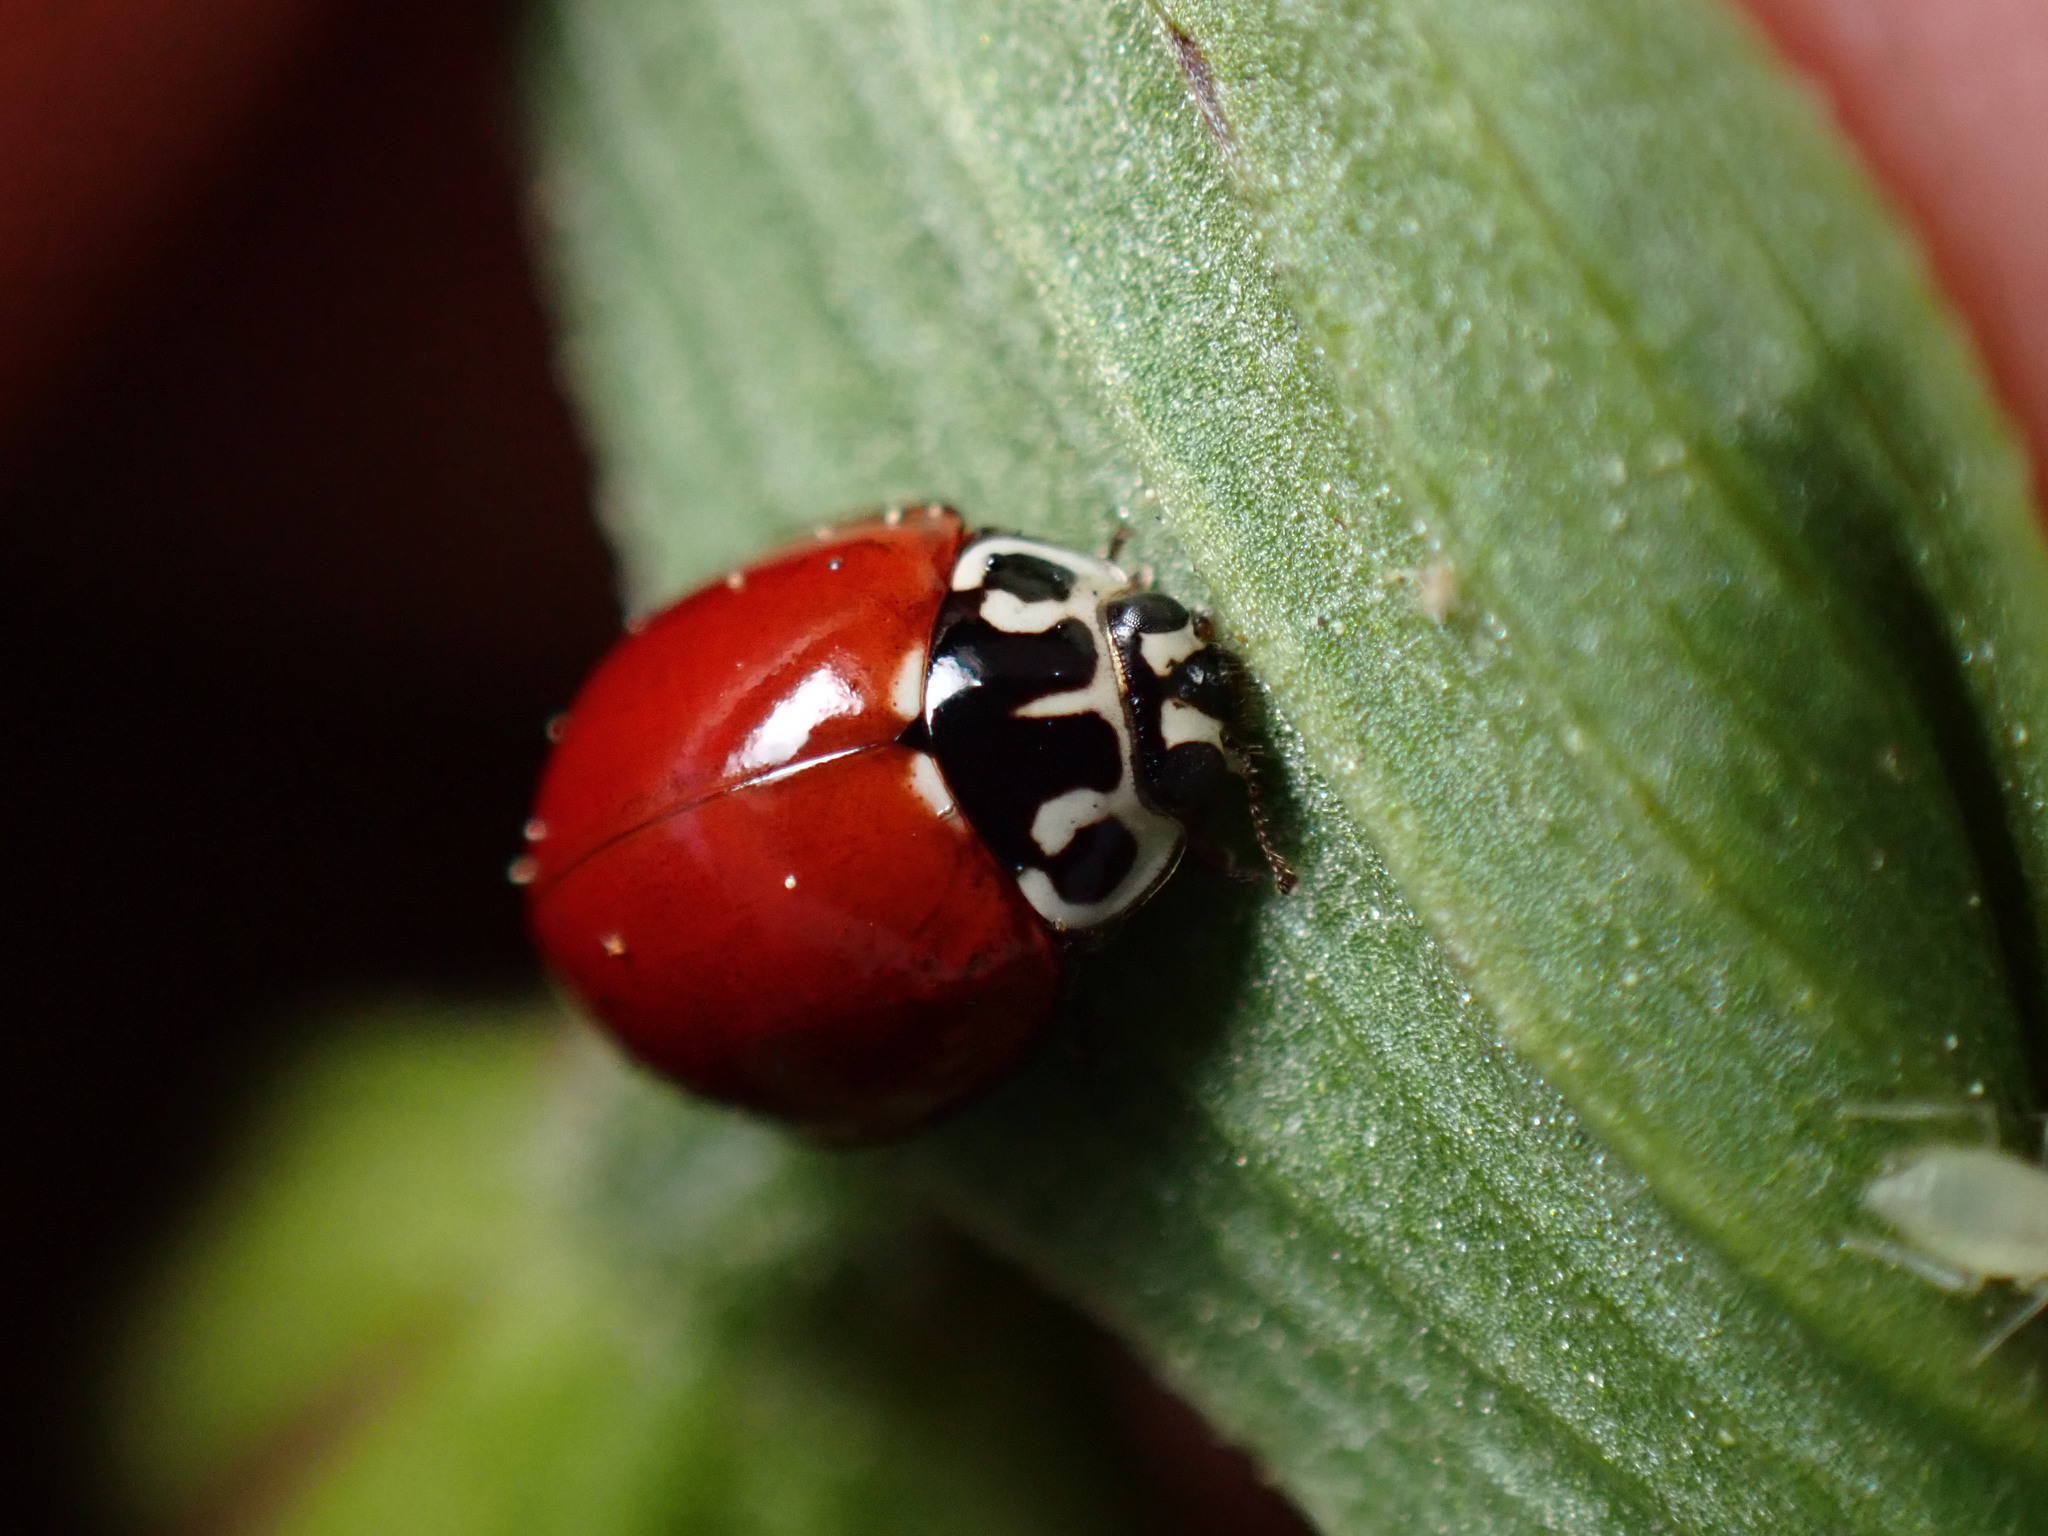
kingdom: Animalia
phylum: Arthropoda
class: Insecta
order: Coleoptera
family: Coccinellidae
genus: Cycloneda
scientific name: Cycloneda polita
